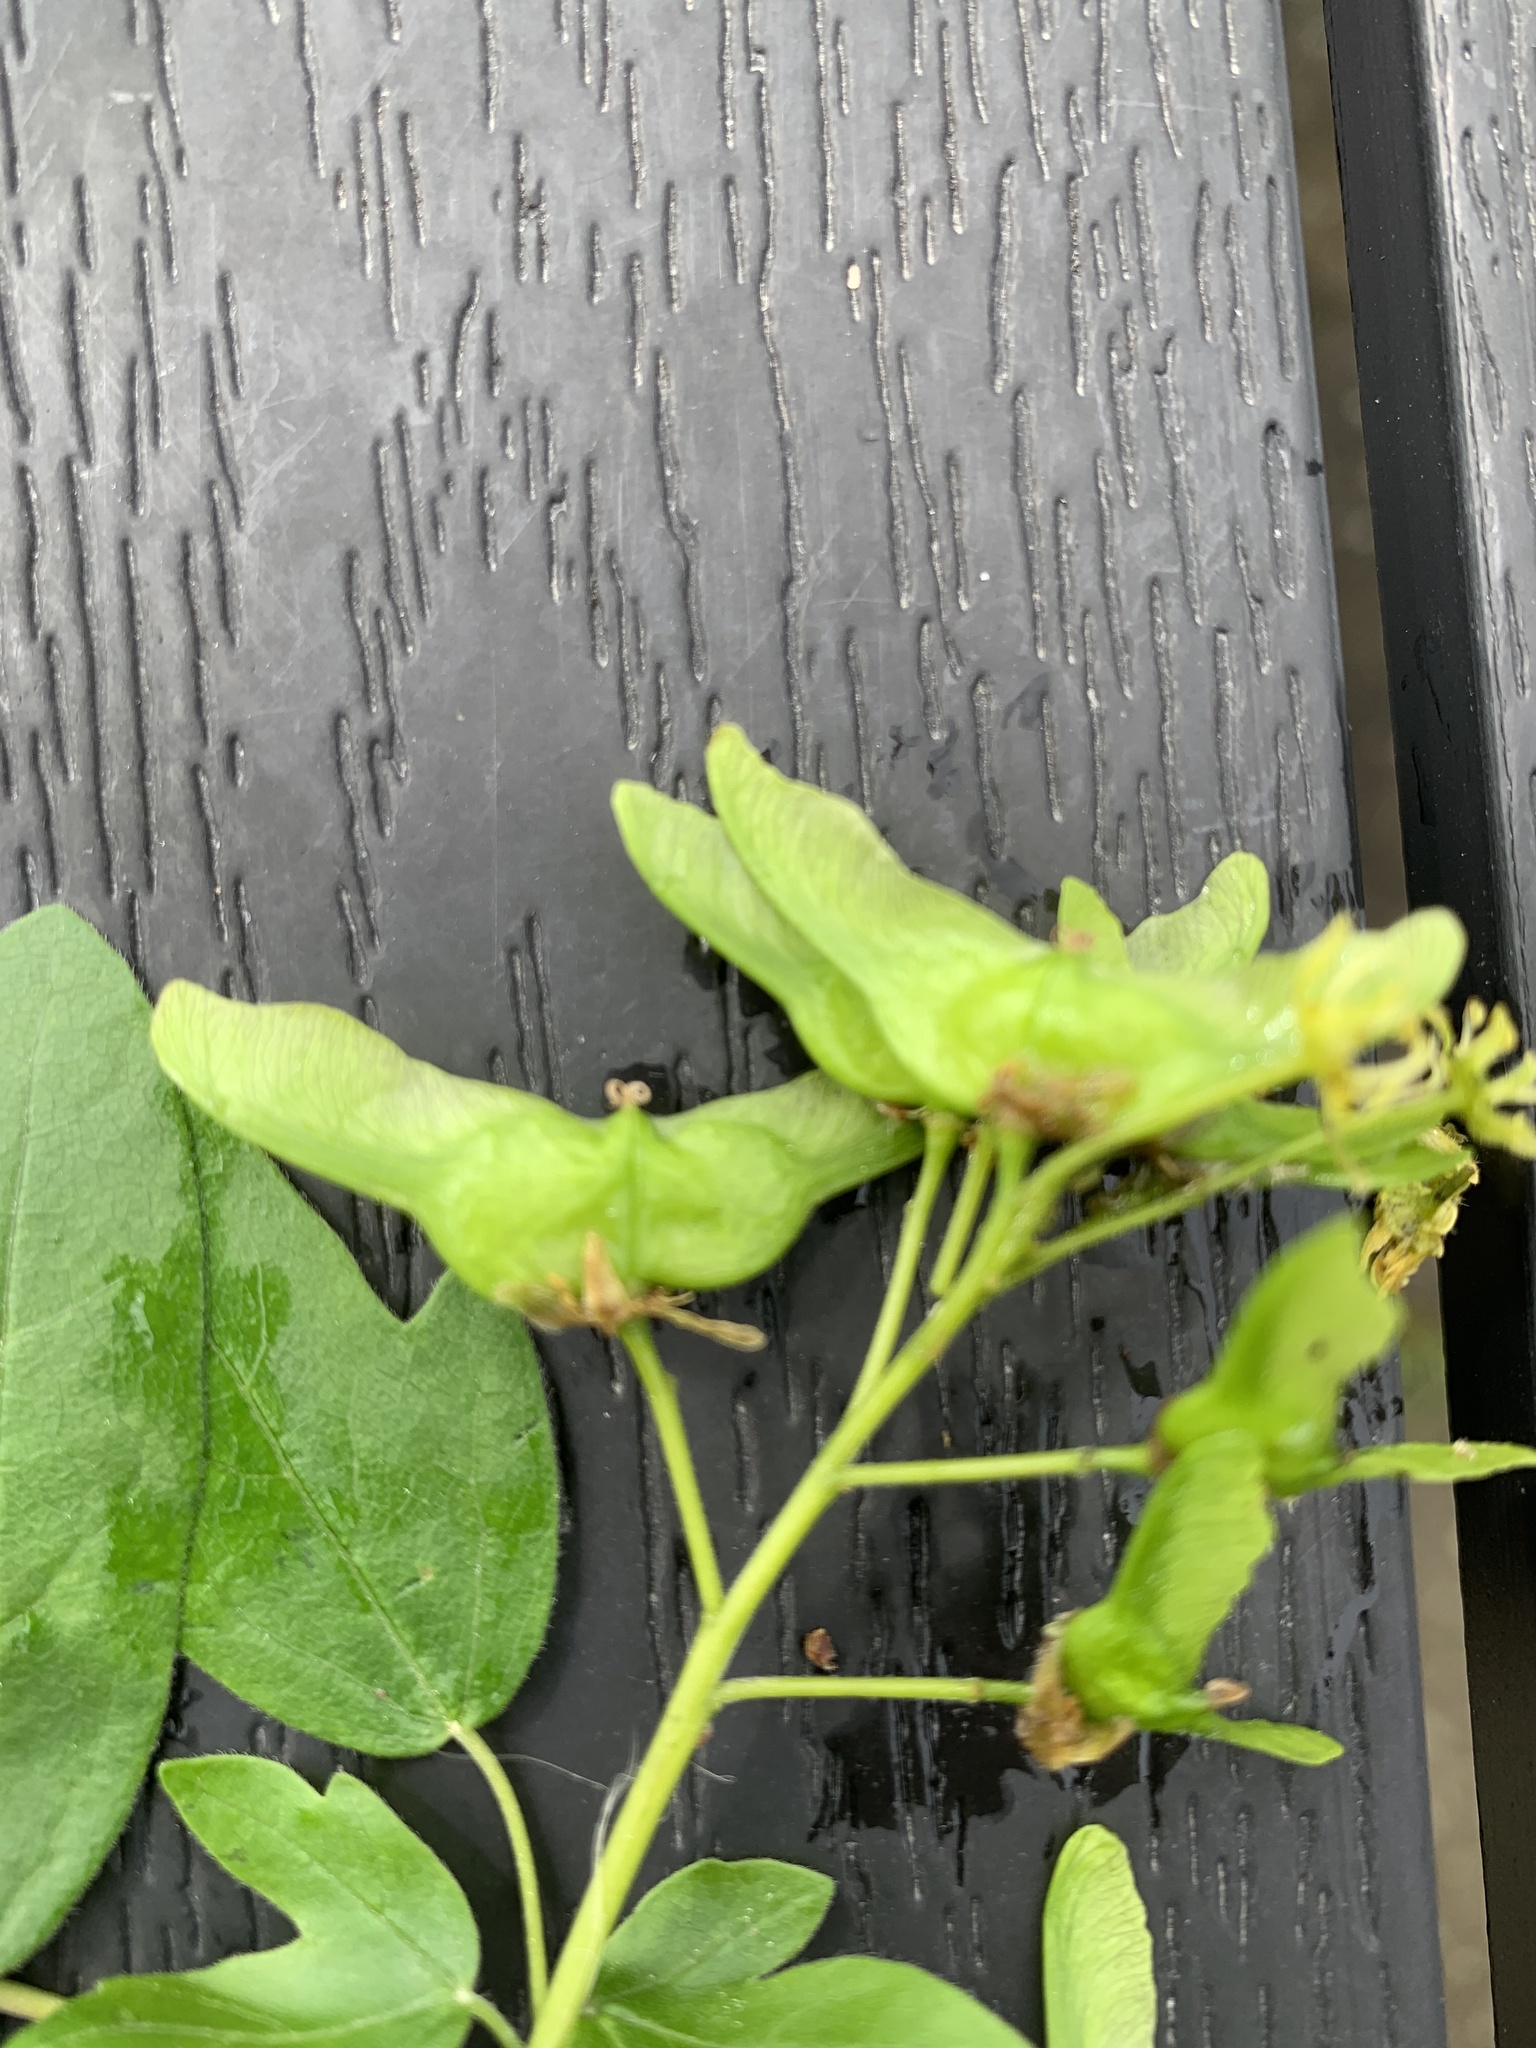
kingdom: Plantae
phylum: Tracheophyta
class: Magnoliopsida
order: Sapindales
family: Sapindaceae
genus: Acer
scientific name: Acer campestre
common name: Field maple
